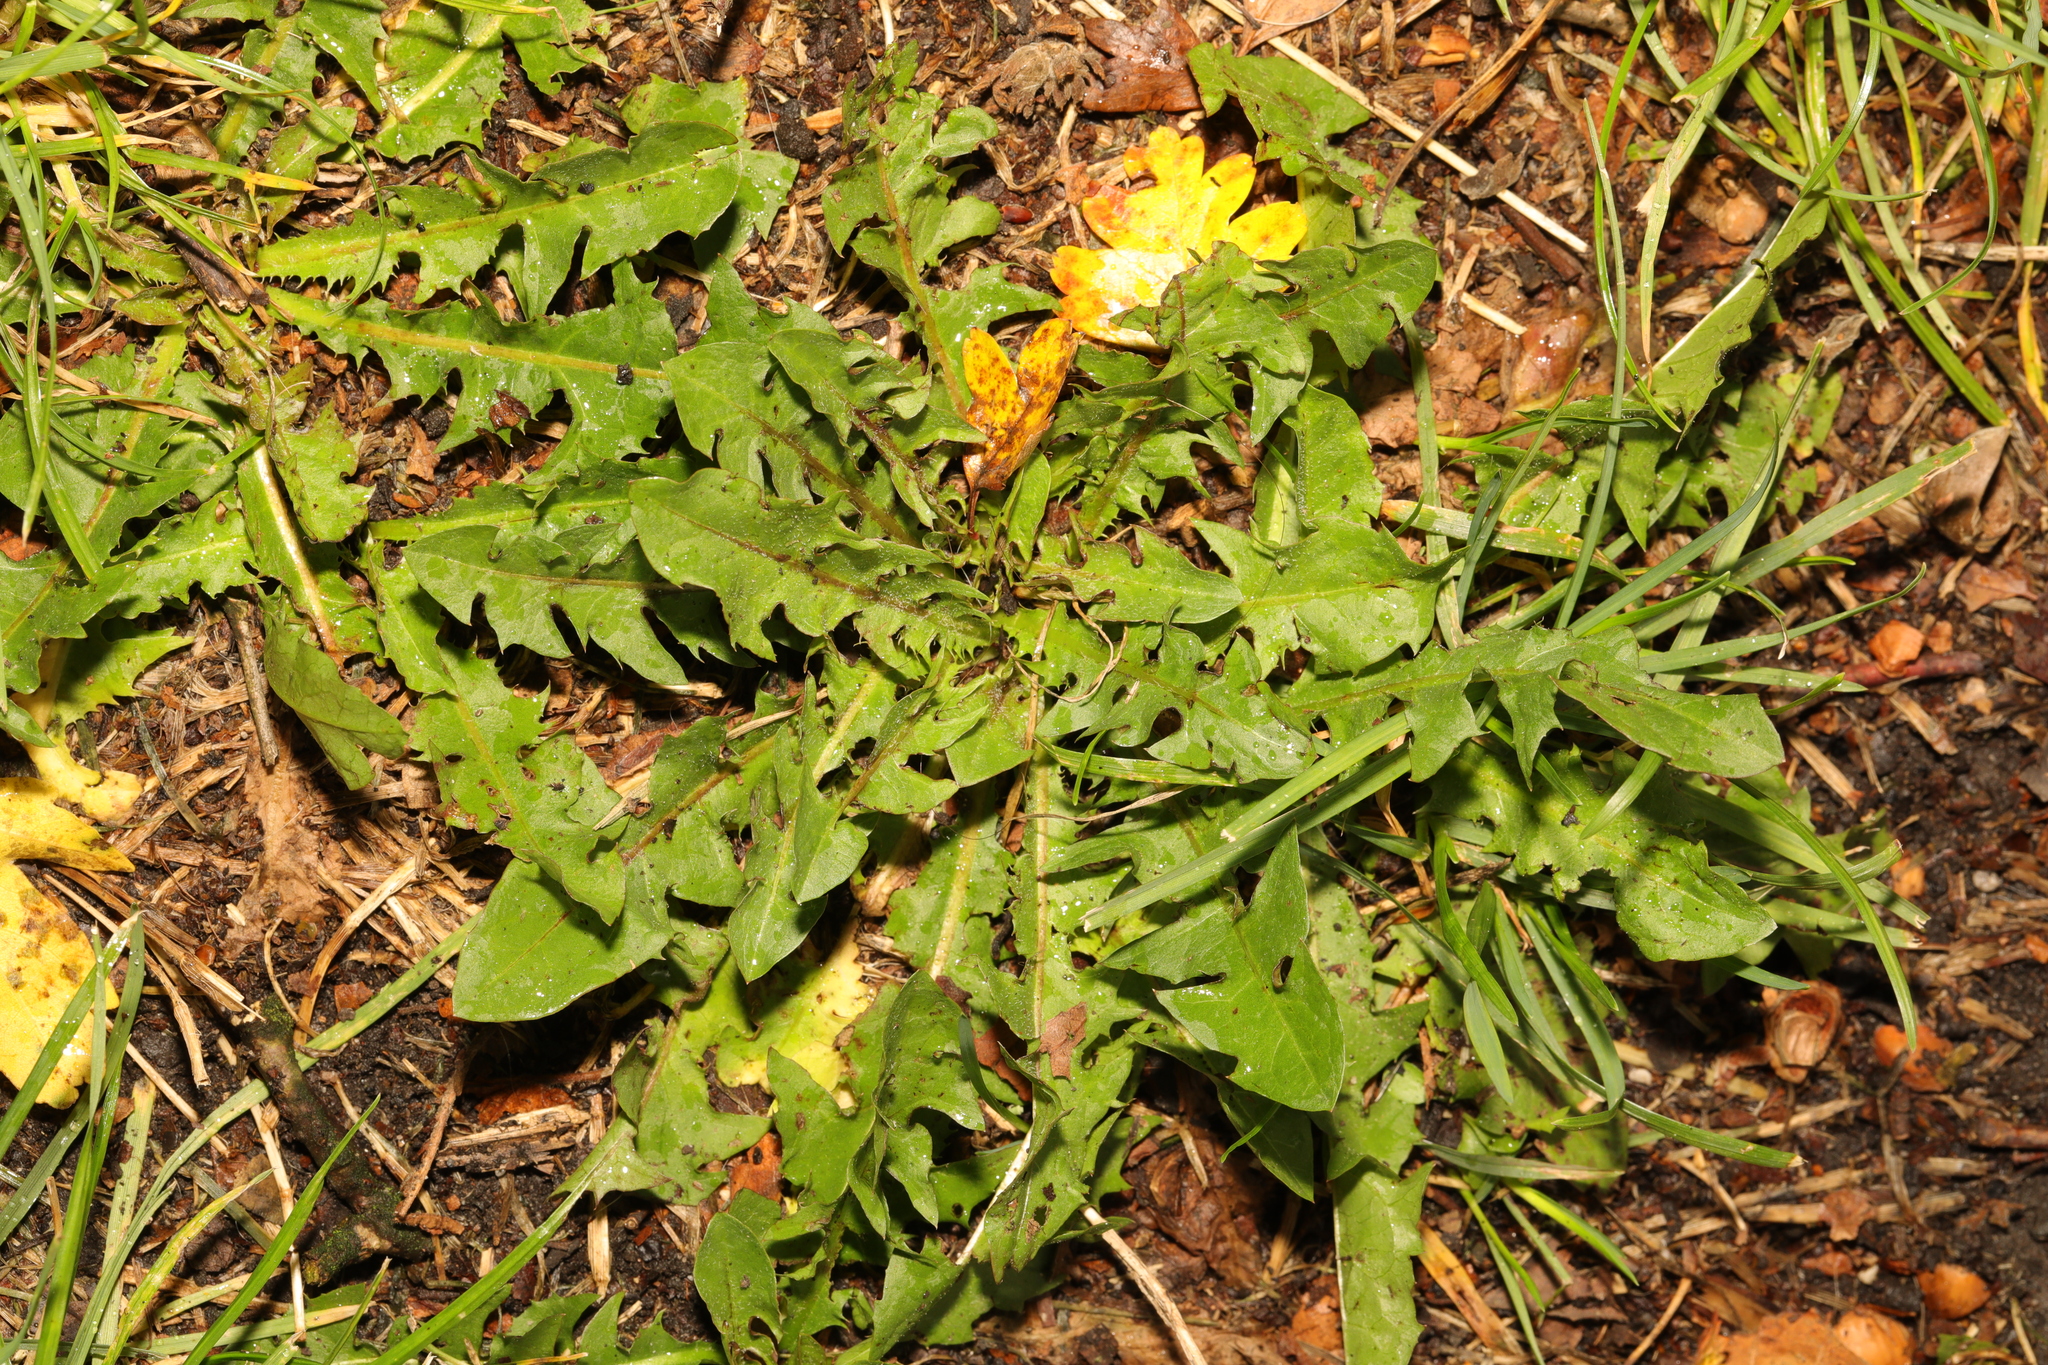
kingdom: Plantae
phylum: Tracheophyta
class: Magnoliopsida
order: Asterales
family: Asteraceae
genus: Taraxacum
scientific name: Taraxacum officinale
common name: Common dandelion
